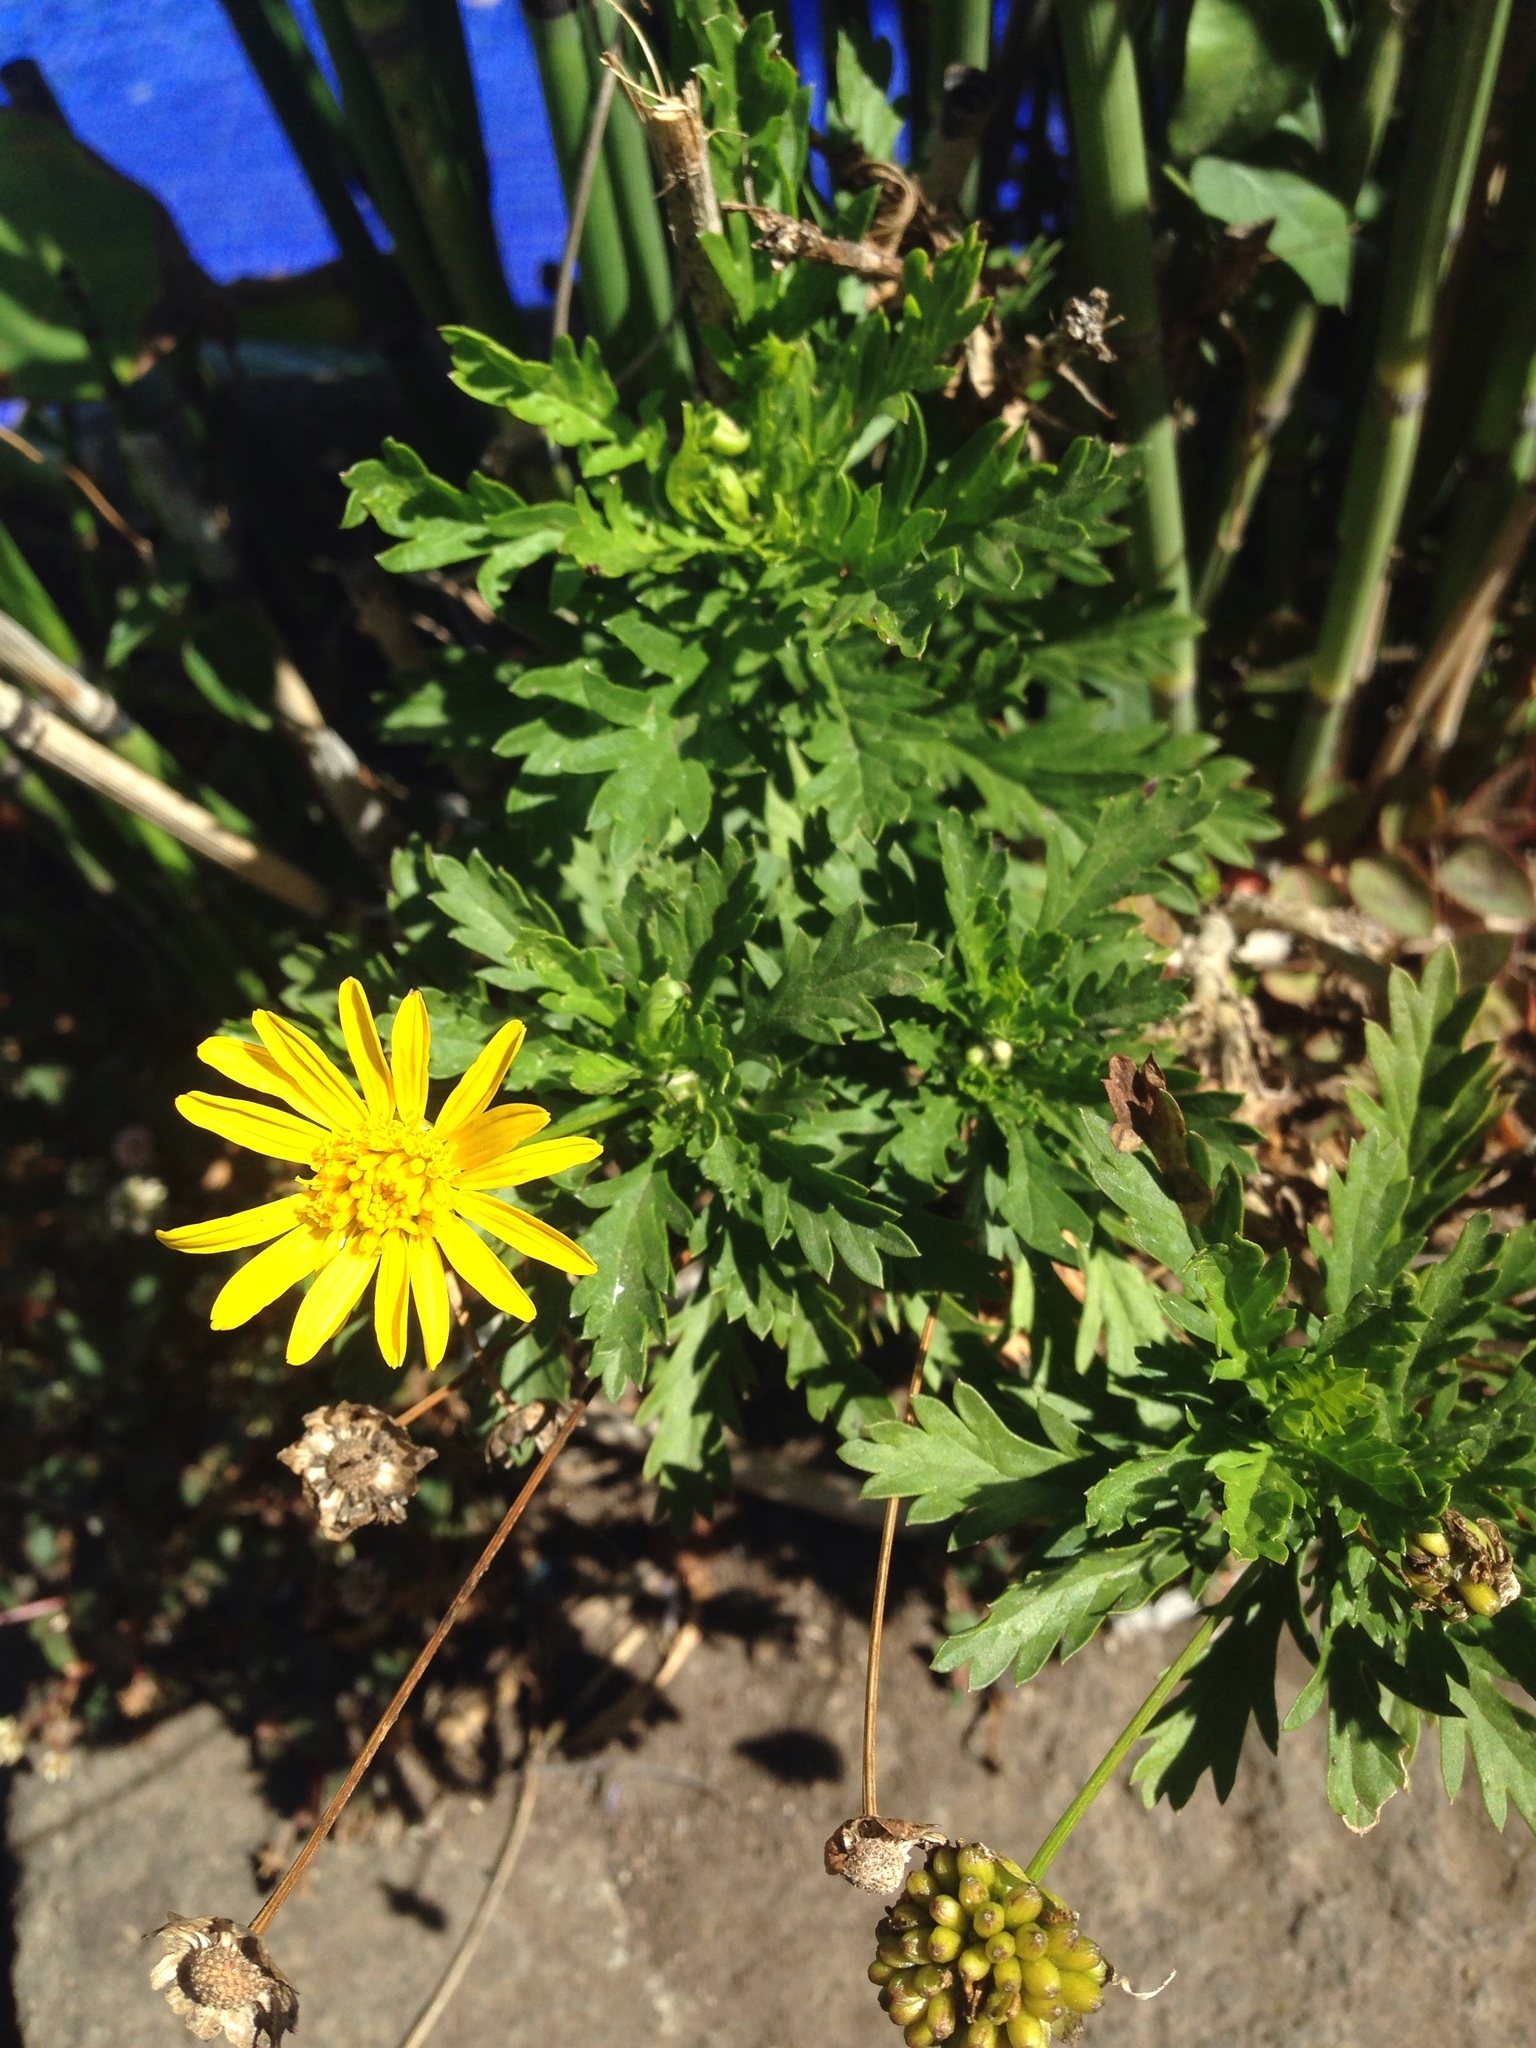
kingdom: Plantae
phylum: Tracheophyta
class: Magnoliopsida
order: Asterales
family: Asteraceae
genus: Euryops
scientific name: Euryops chrysanthemoides
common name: Bull's eye
